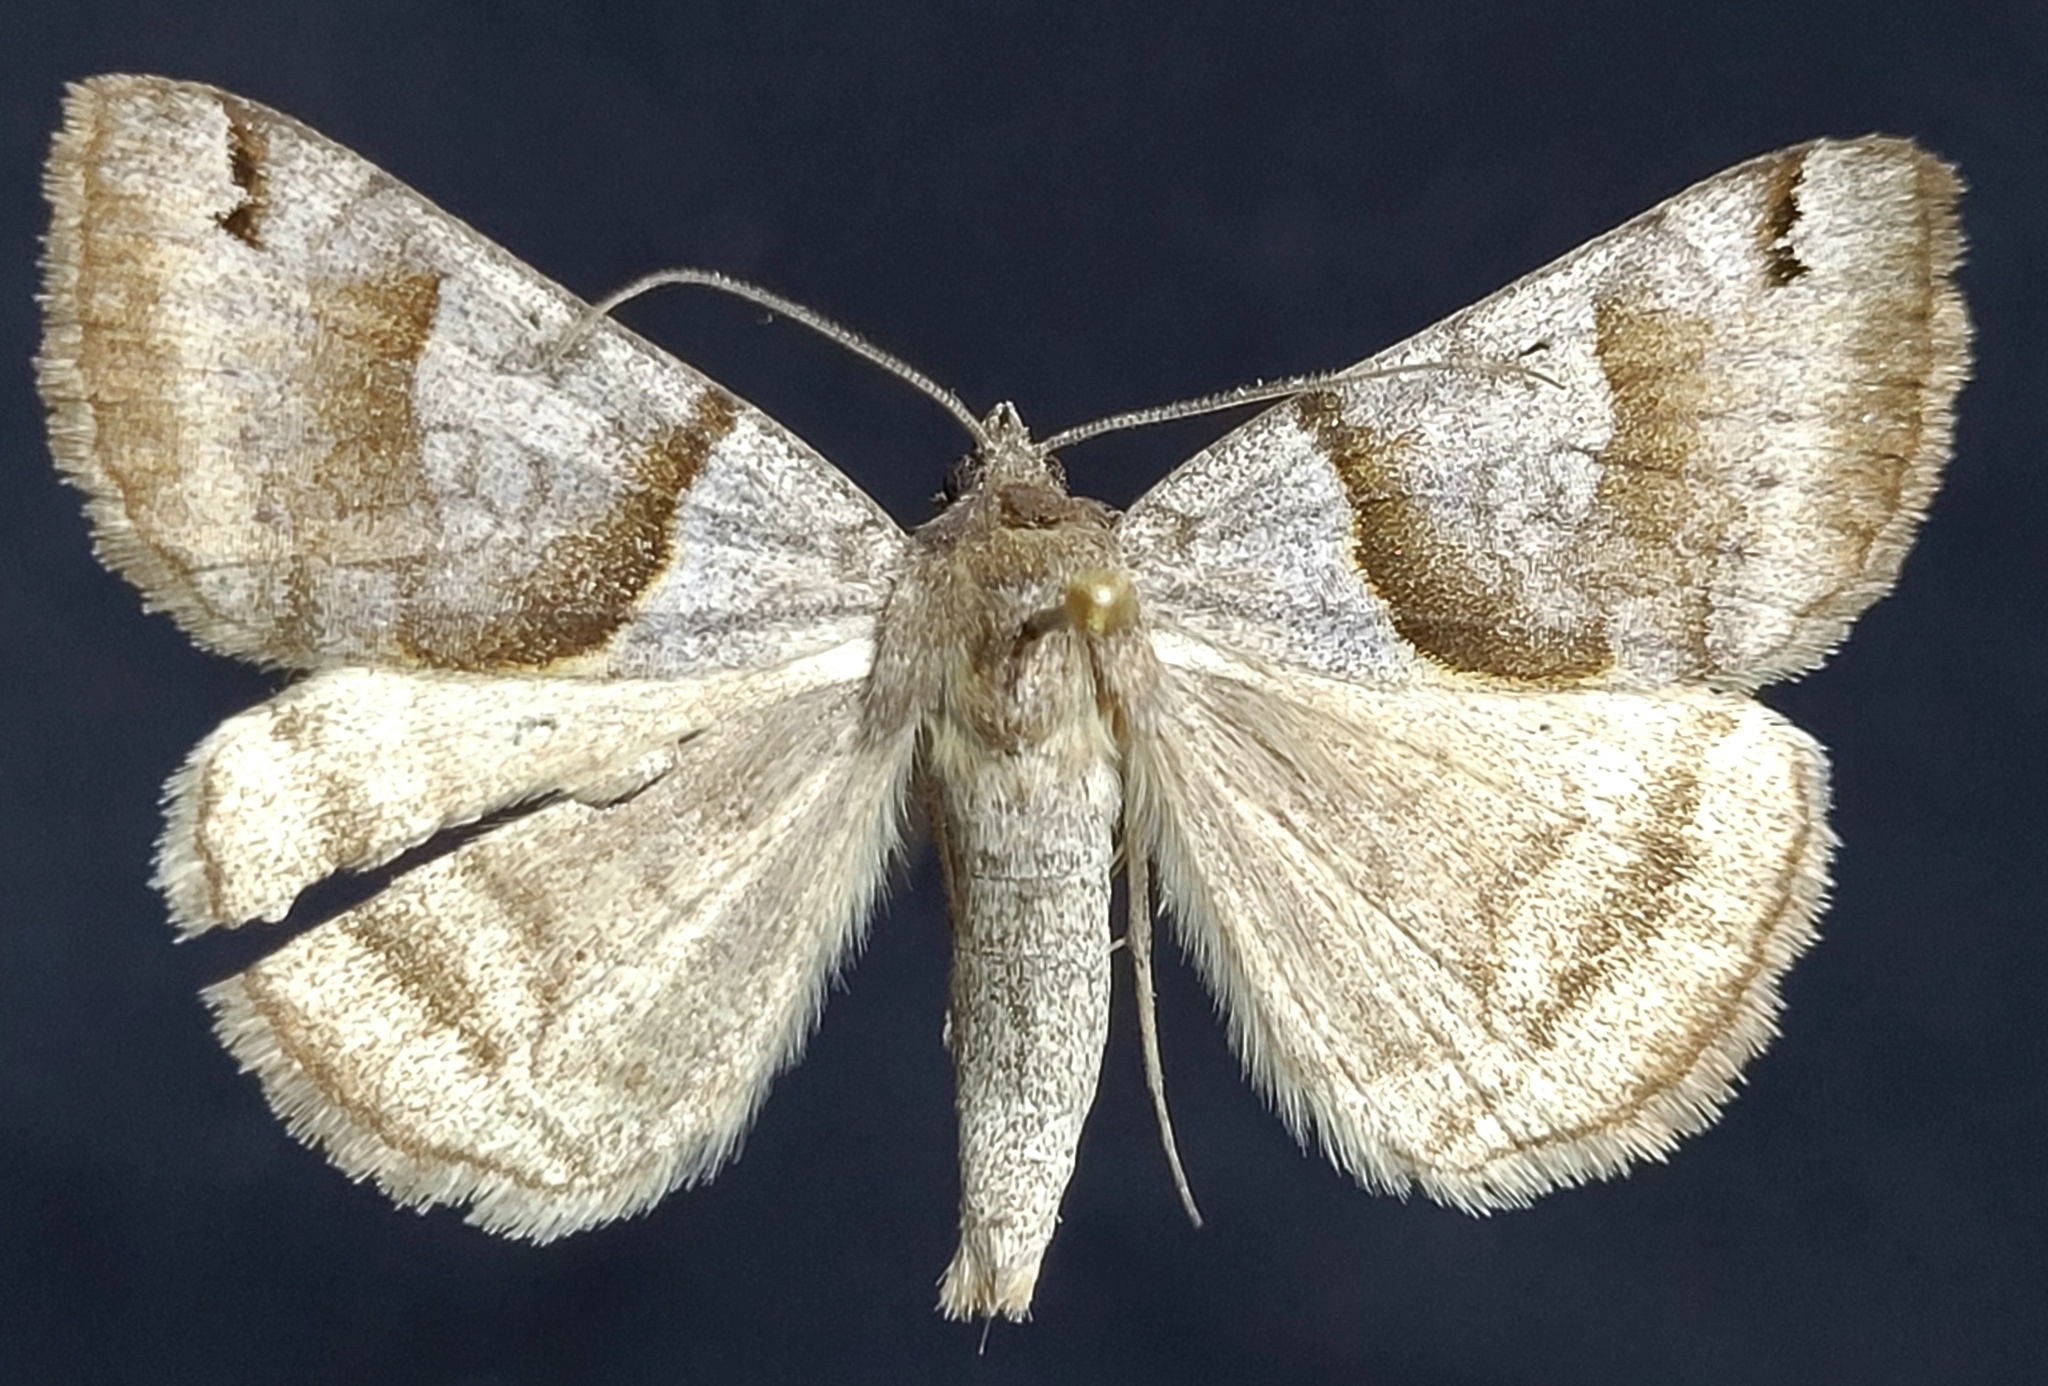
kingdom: Animalia
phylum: Arthropoda
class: Insecta
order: Lepidoptera
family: Erebidae
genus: Caenurgina
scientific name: Caenurgina crassiuscula
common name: Double-barred
